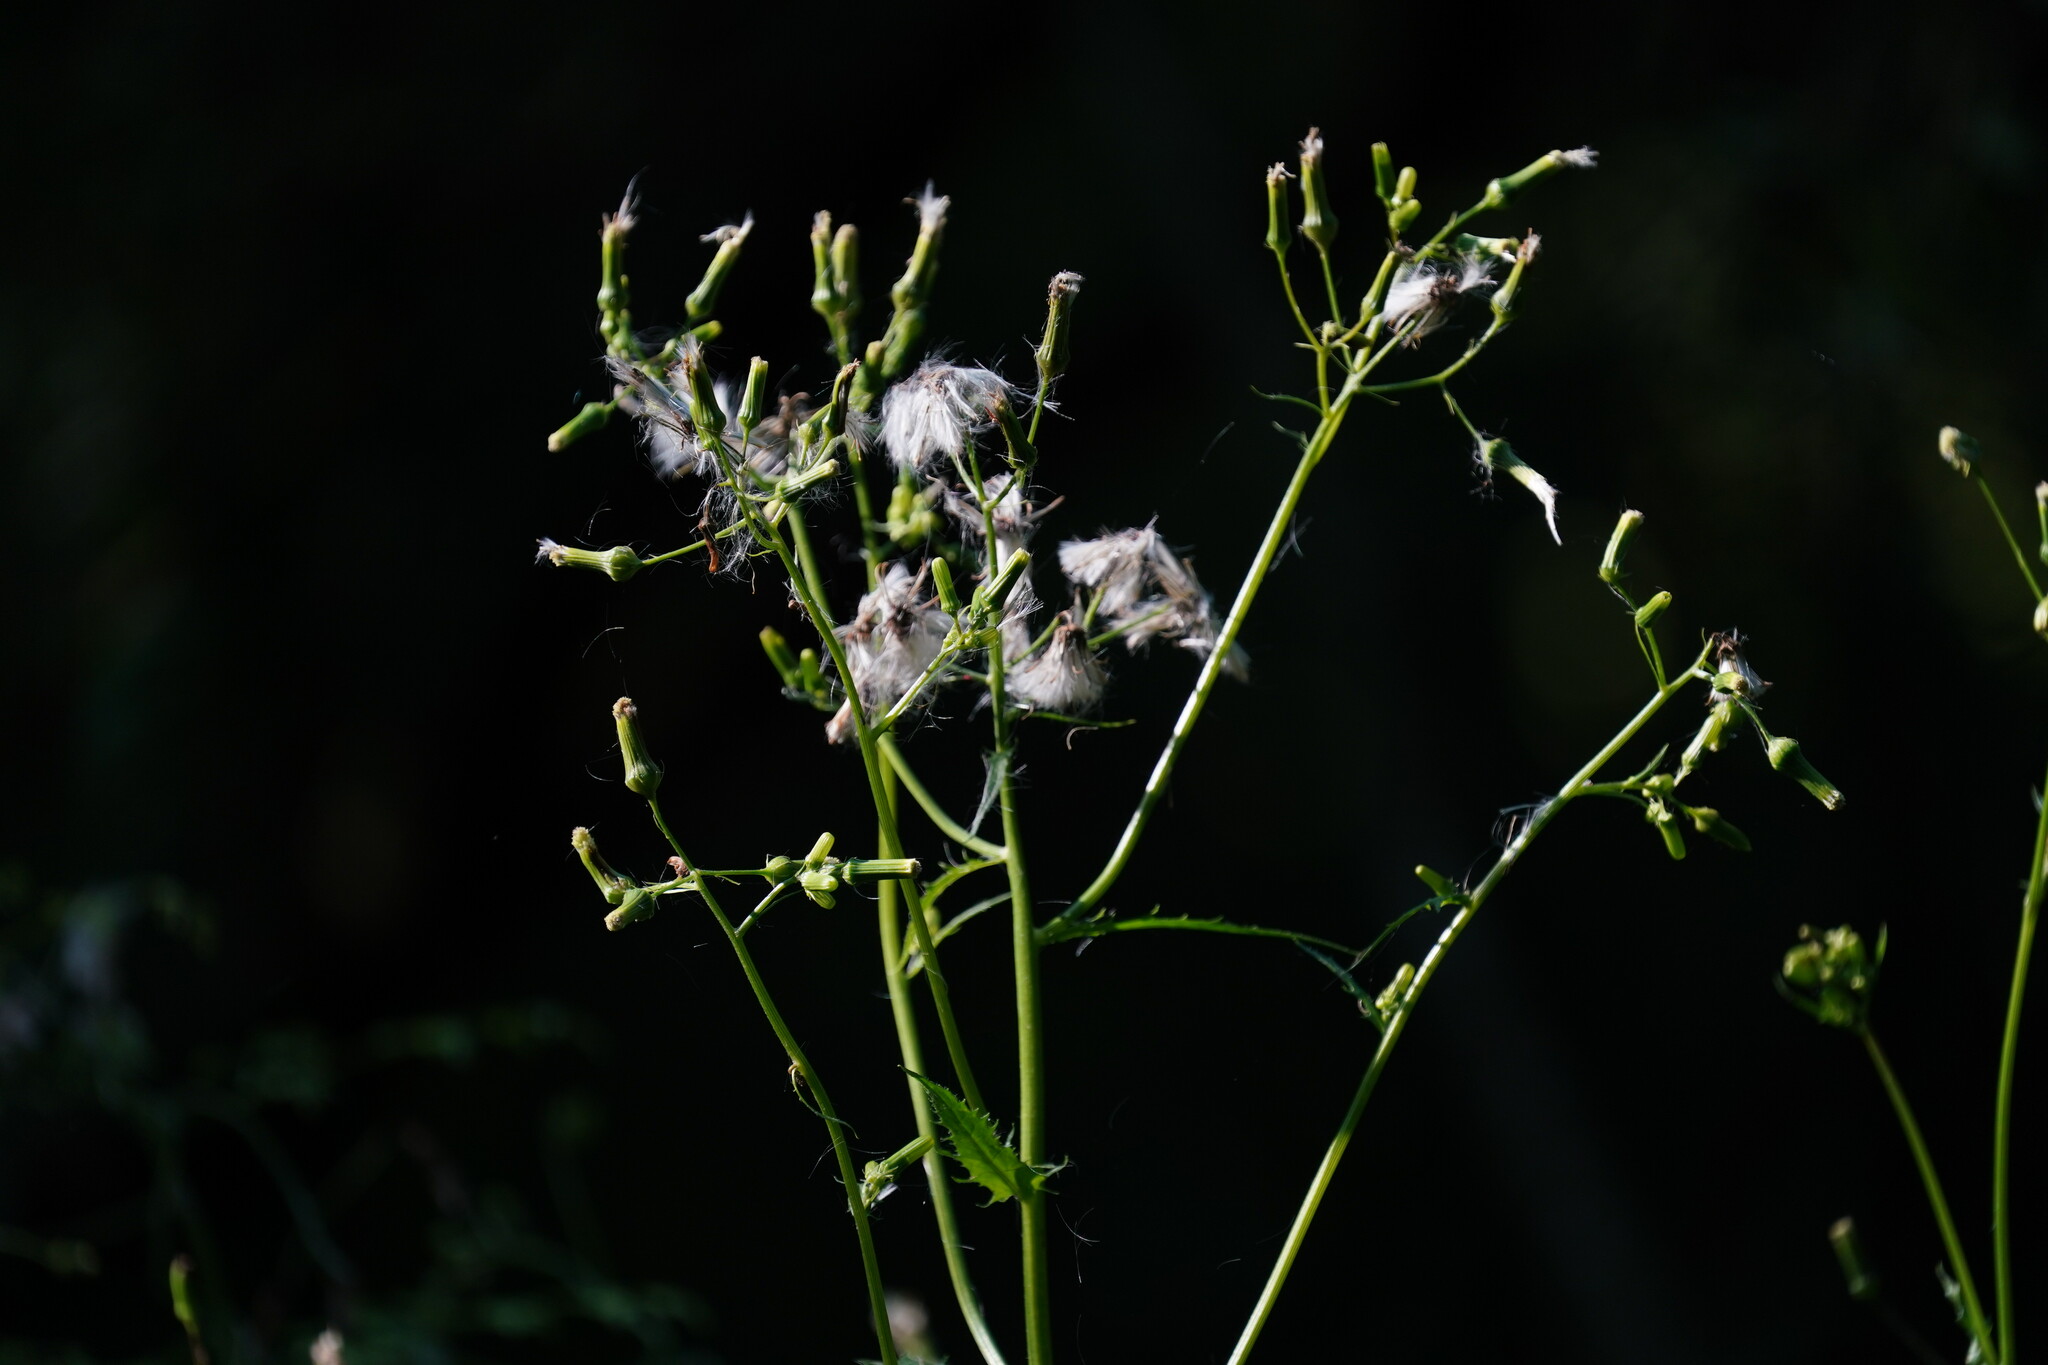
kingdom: Plantae
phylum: Tracheophyta
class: Magnoliopsida
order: Asterales
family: Asteraceae
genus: Erechtites
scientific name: Erechtites hieraciifolius
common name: American burnweed
